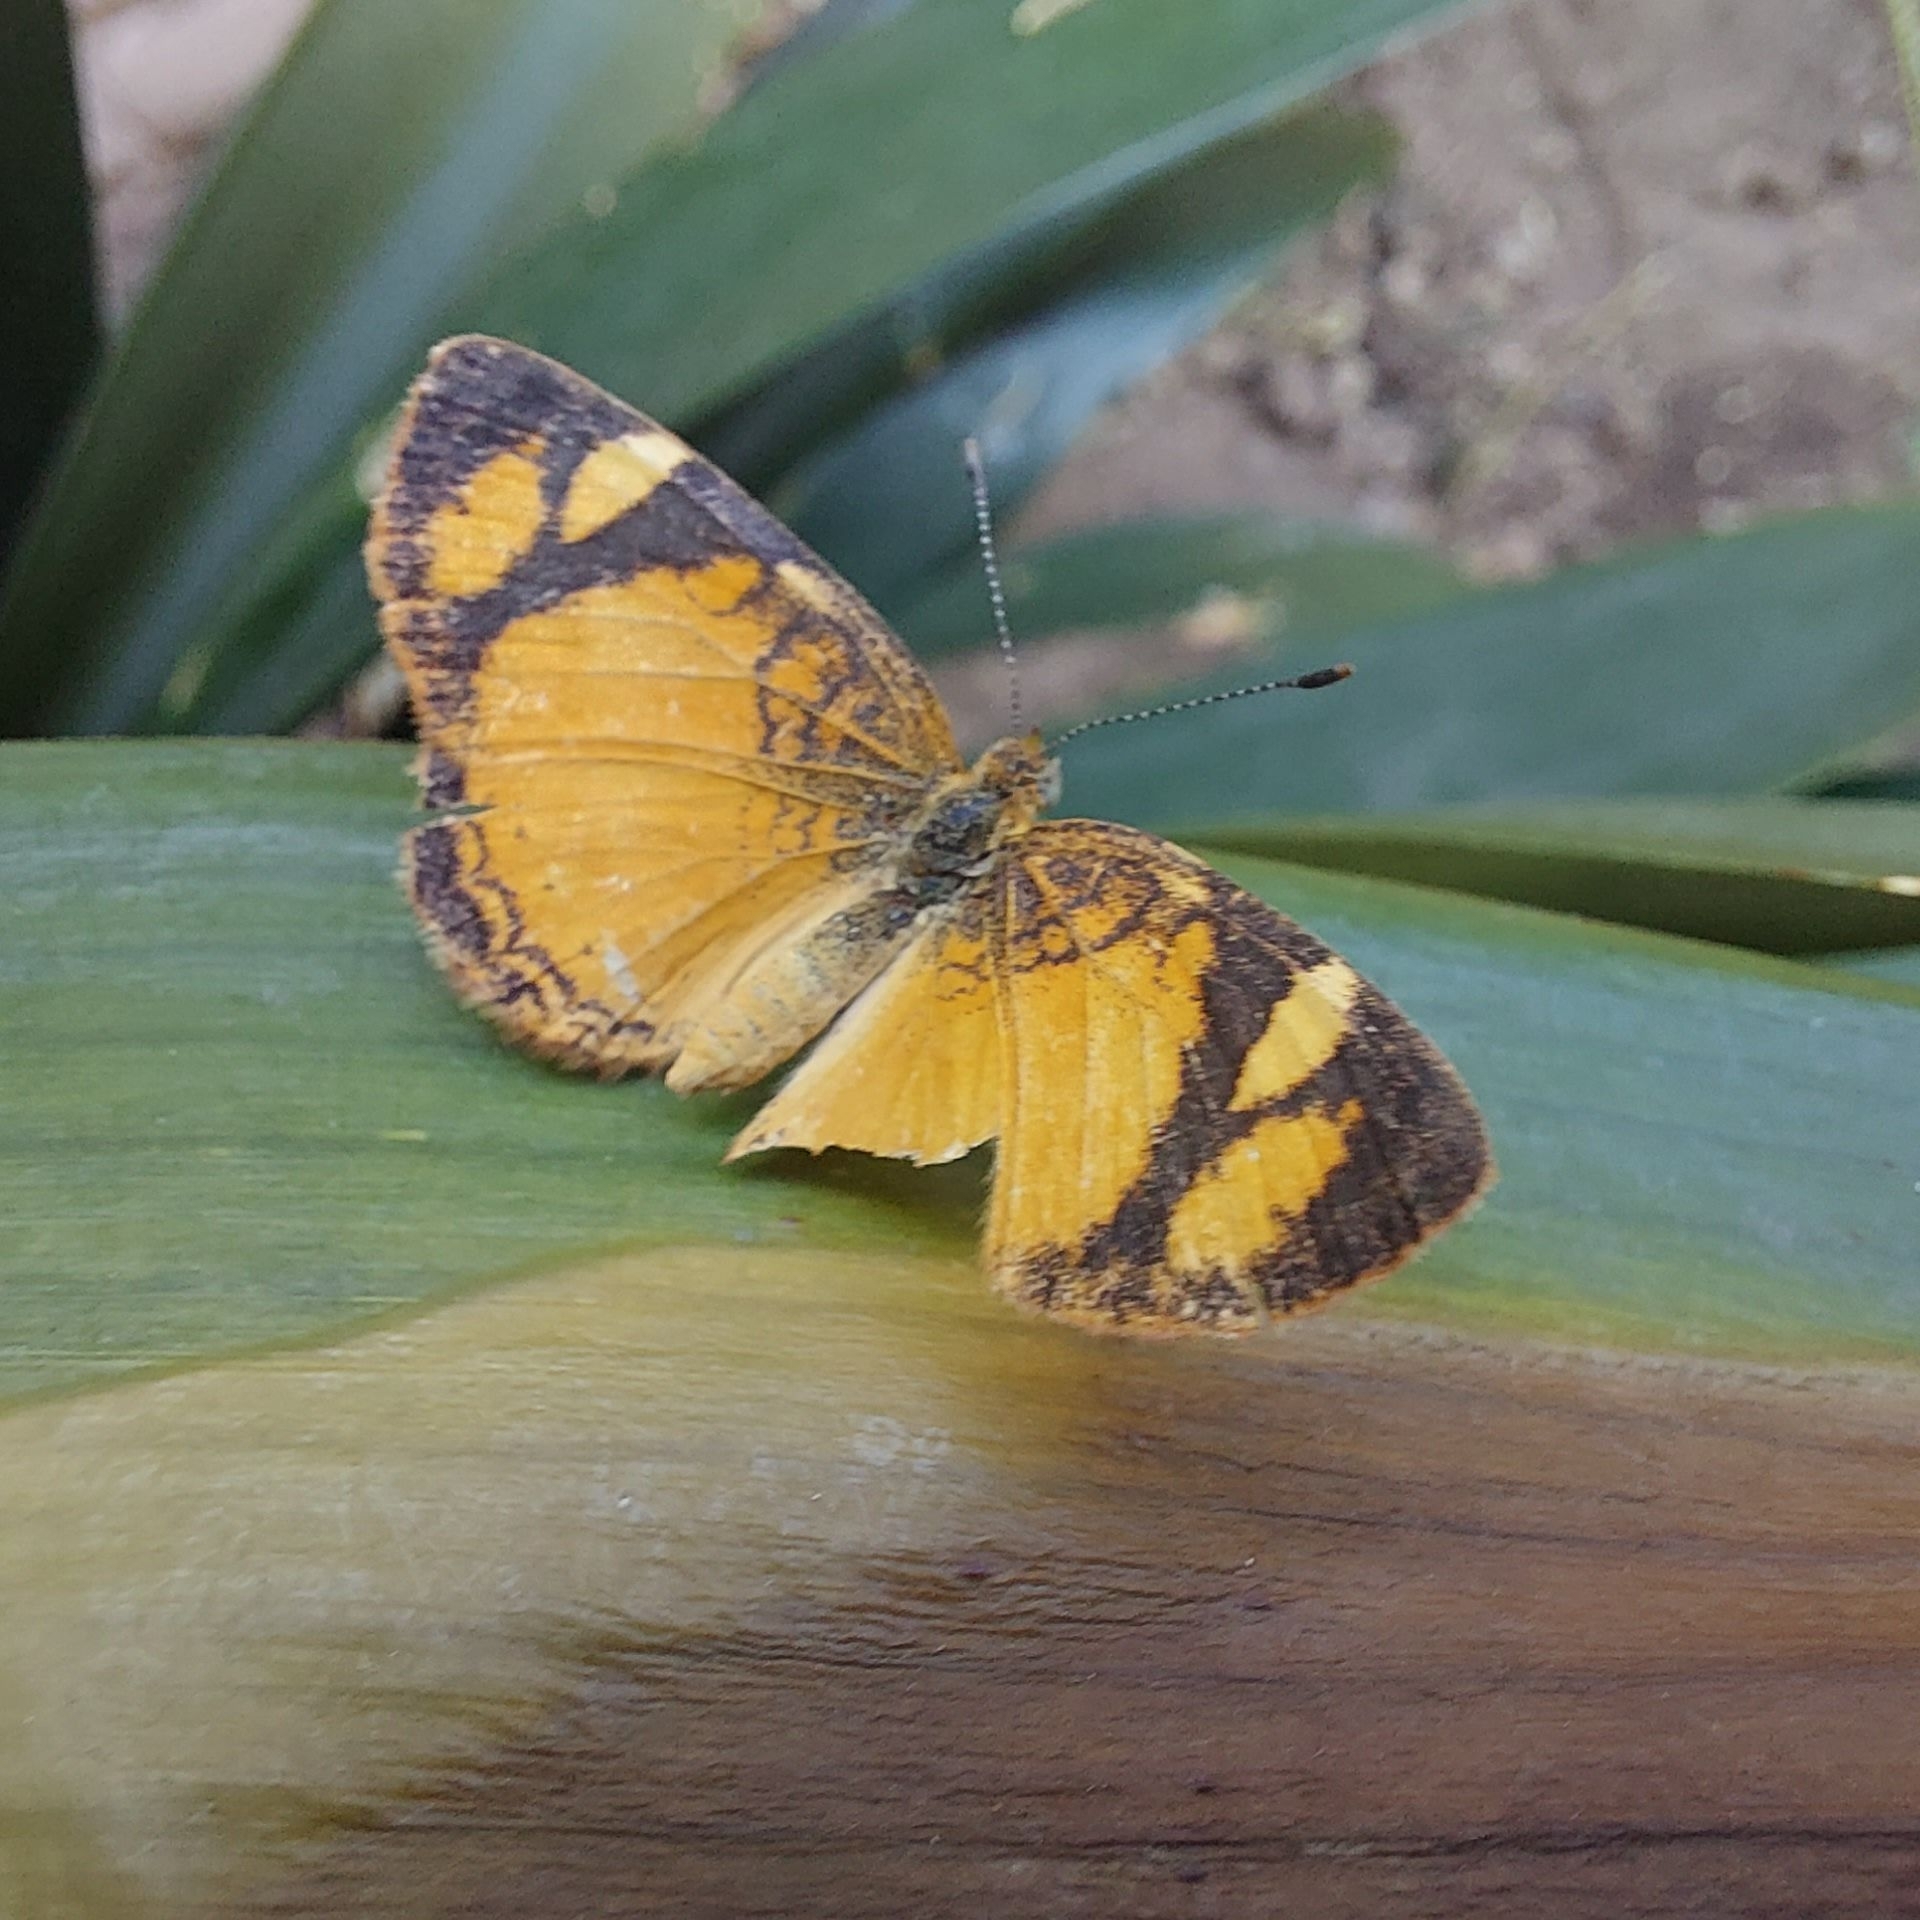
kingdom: Animalia
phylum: Arthropoda
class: Insecta
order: Lepidoptera
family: Nymphalidae
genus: Tegosa
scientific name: Tegosa claudina
